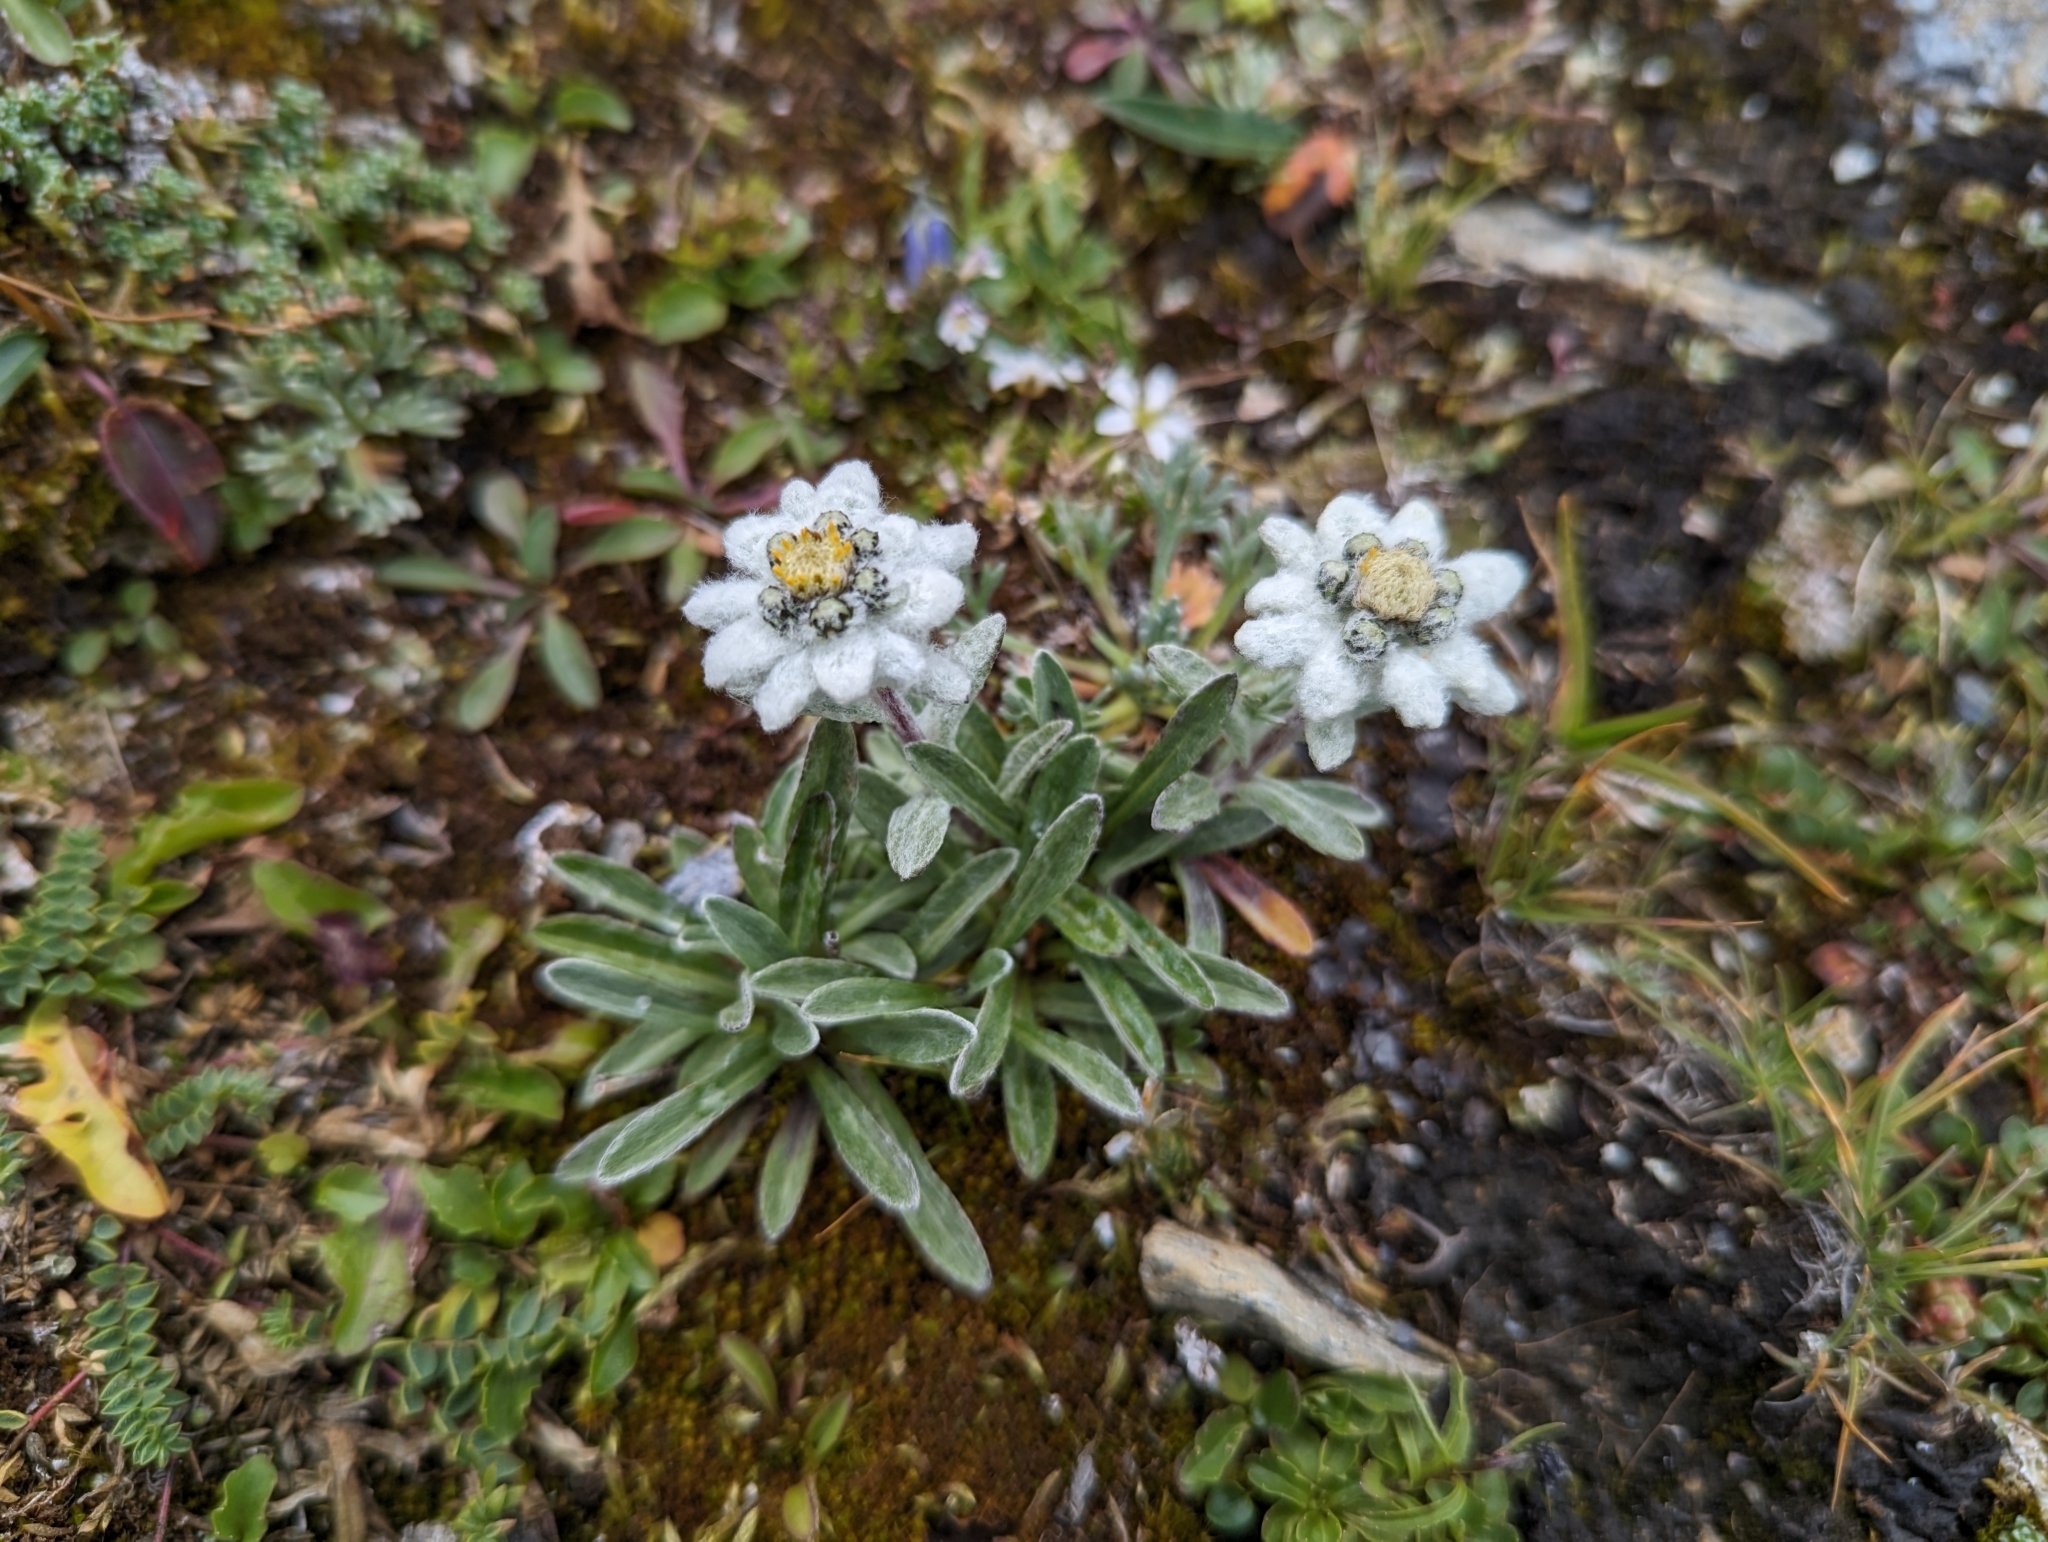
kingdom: Plantae
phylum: Tracheophyta
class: Magnoliopsida
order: Asterales
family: Asteraceae
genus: Leontopodium
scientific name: Leontopodium nivale
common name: Edelweiss
